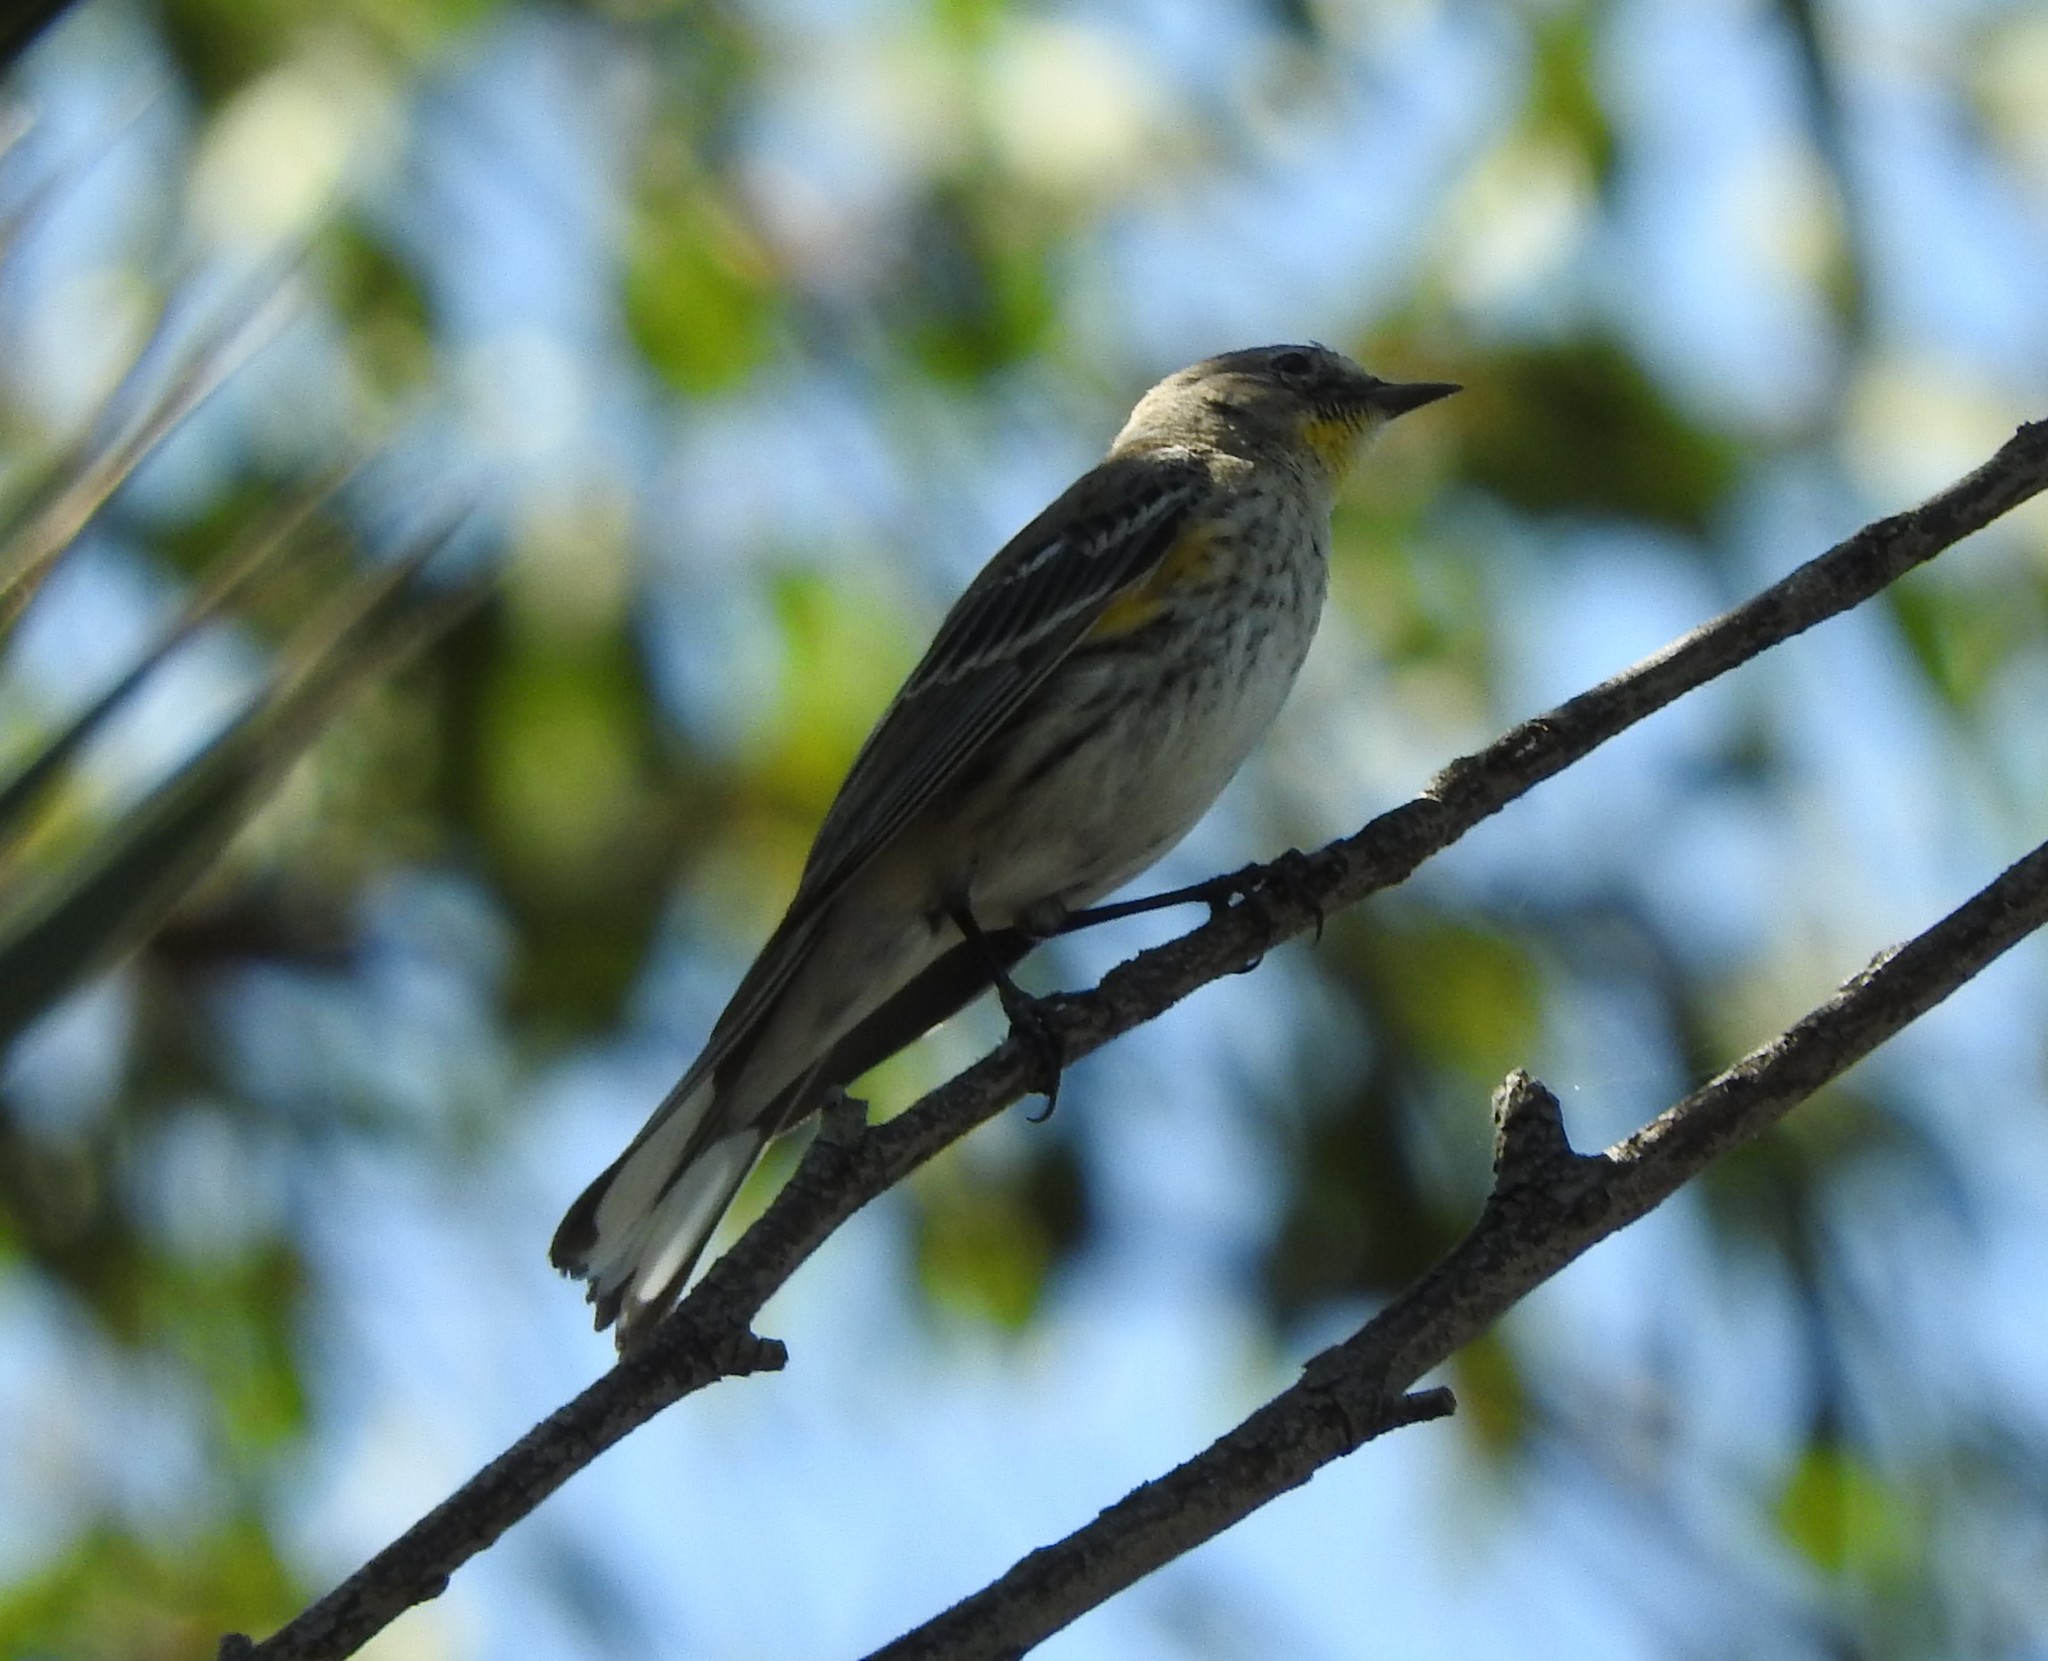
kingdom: Animalia
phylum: Chordata
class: Aves
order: Passeriformes
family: Parulidae
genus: Setophaga
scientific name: Setophaga coronata
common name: Myrtle warbler
